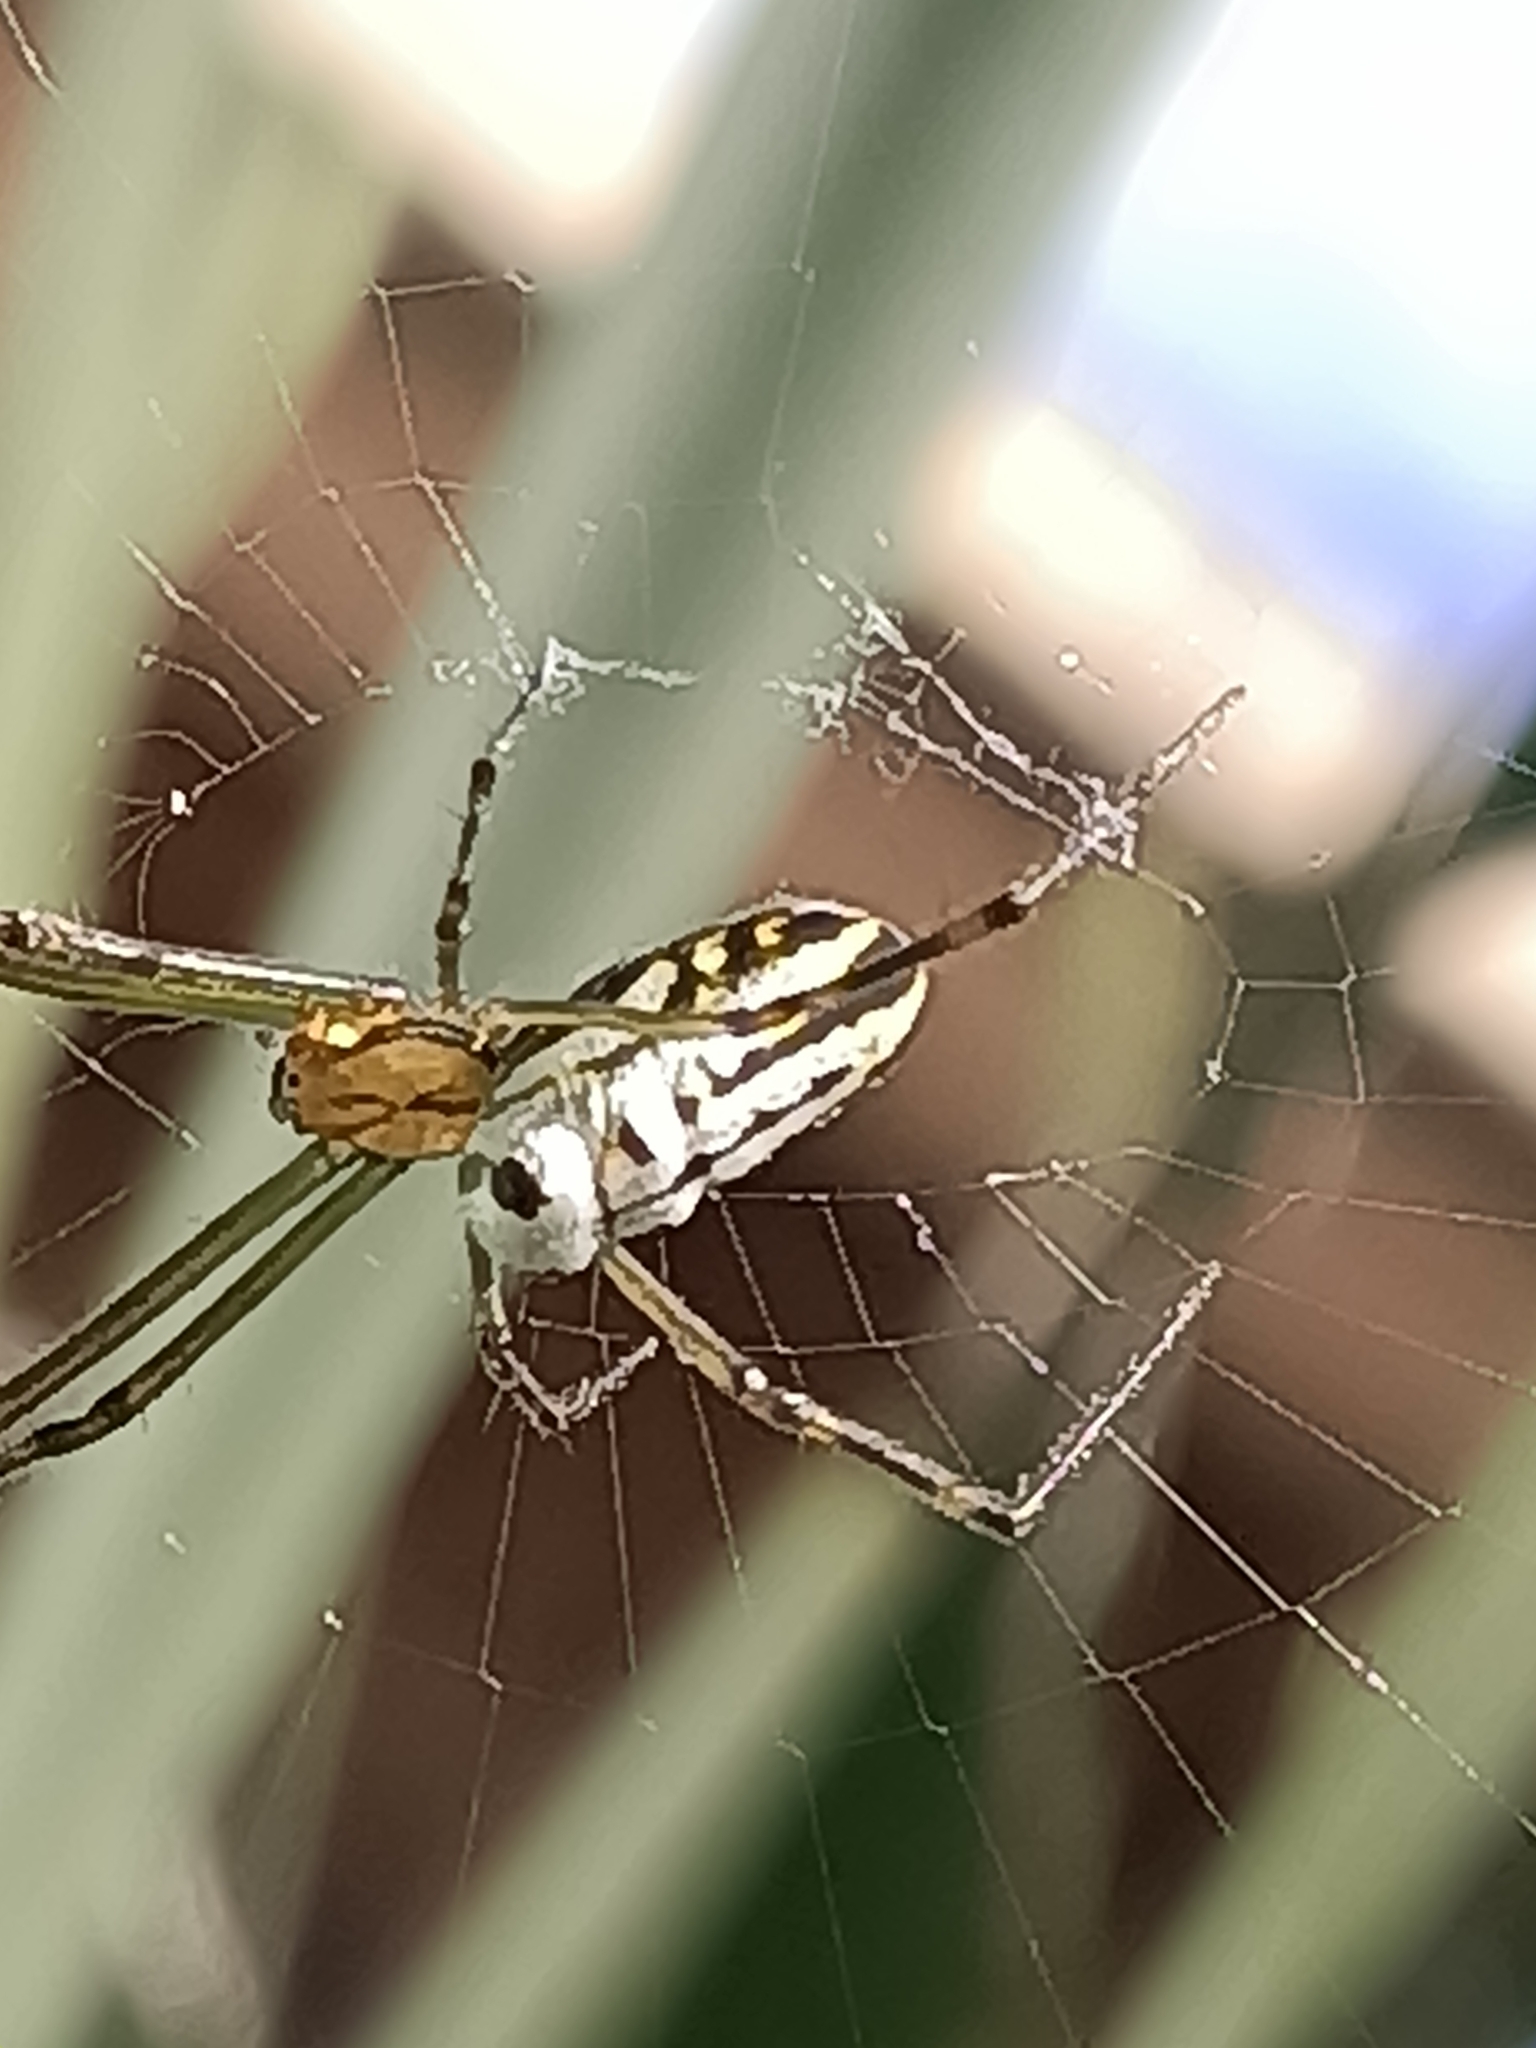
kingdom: Animalia
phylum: Arthropoda
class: Arachnida
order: Araneae
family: Tetragnathidae
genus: Leucauge
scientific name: Leucauge dromedaria
